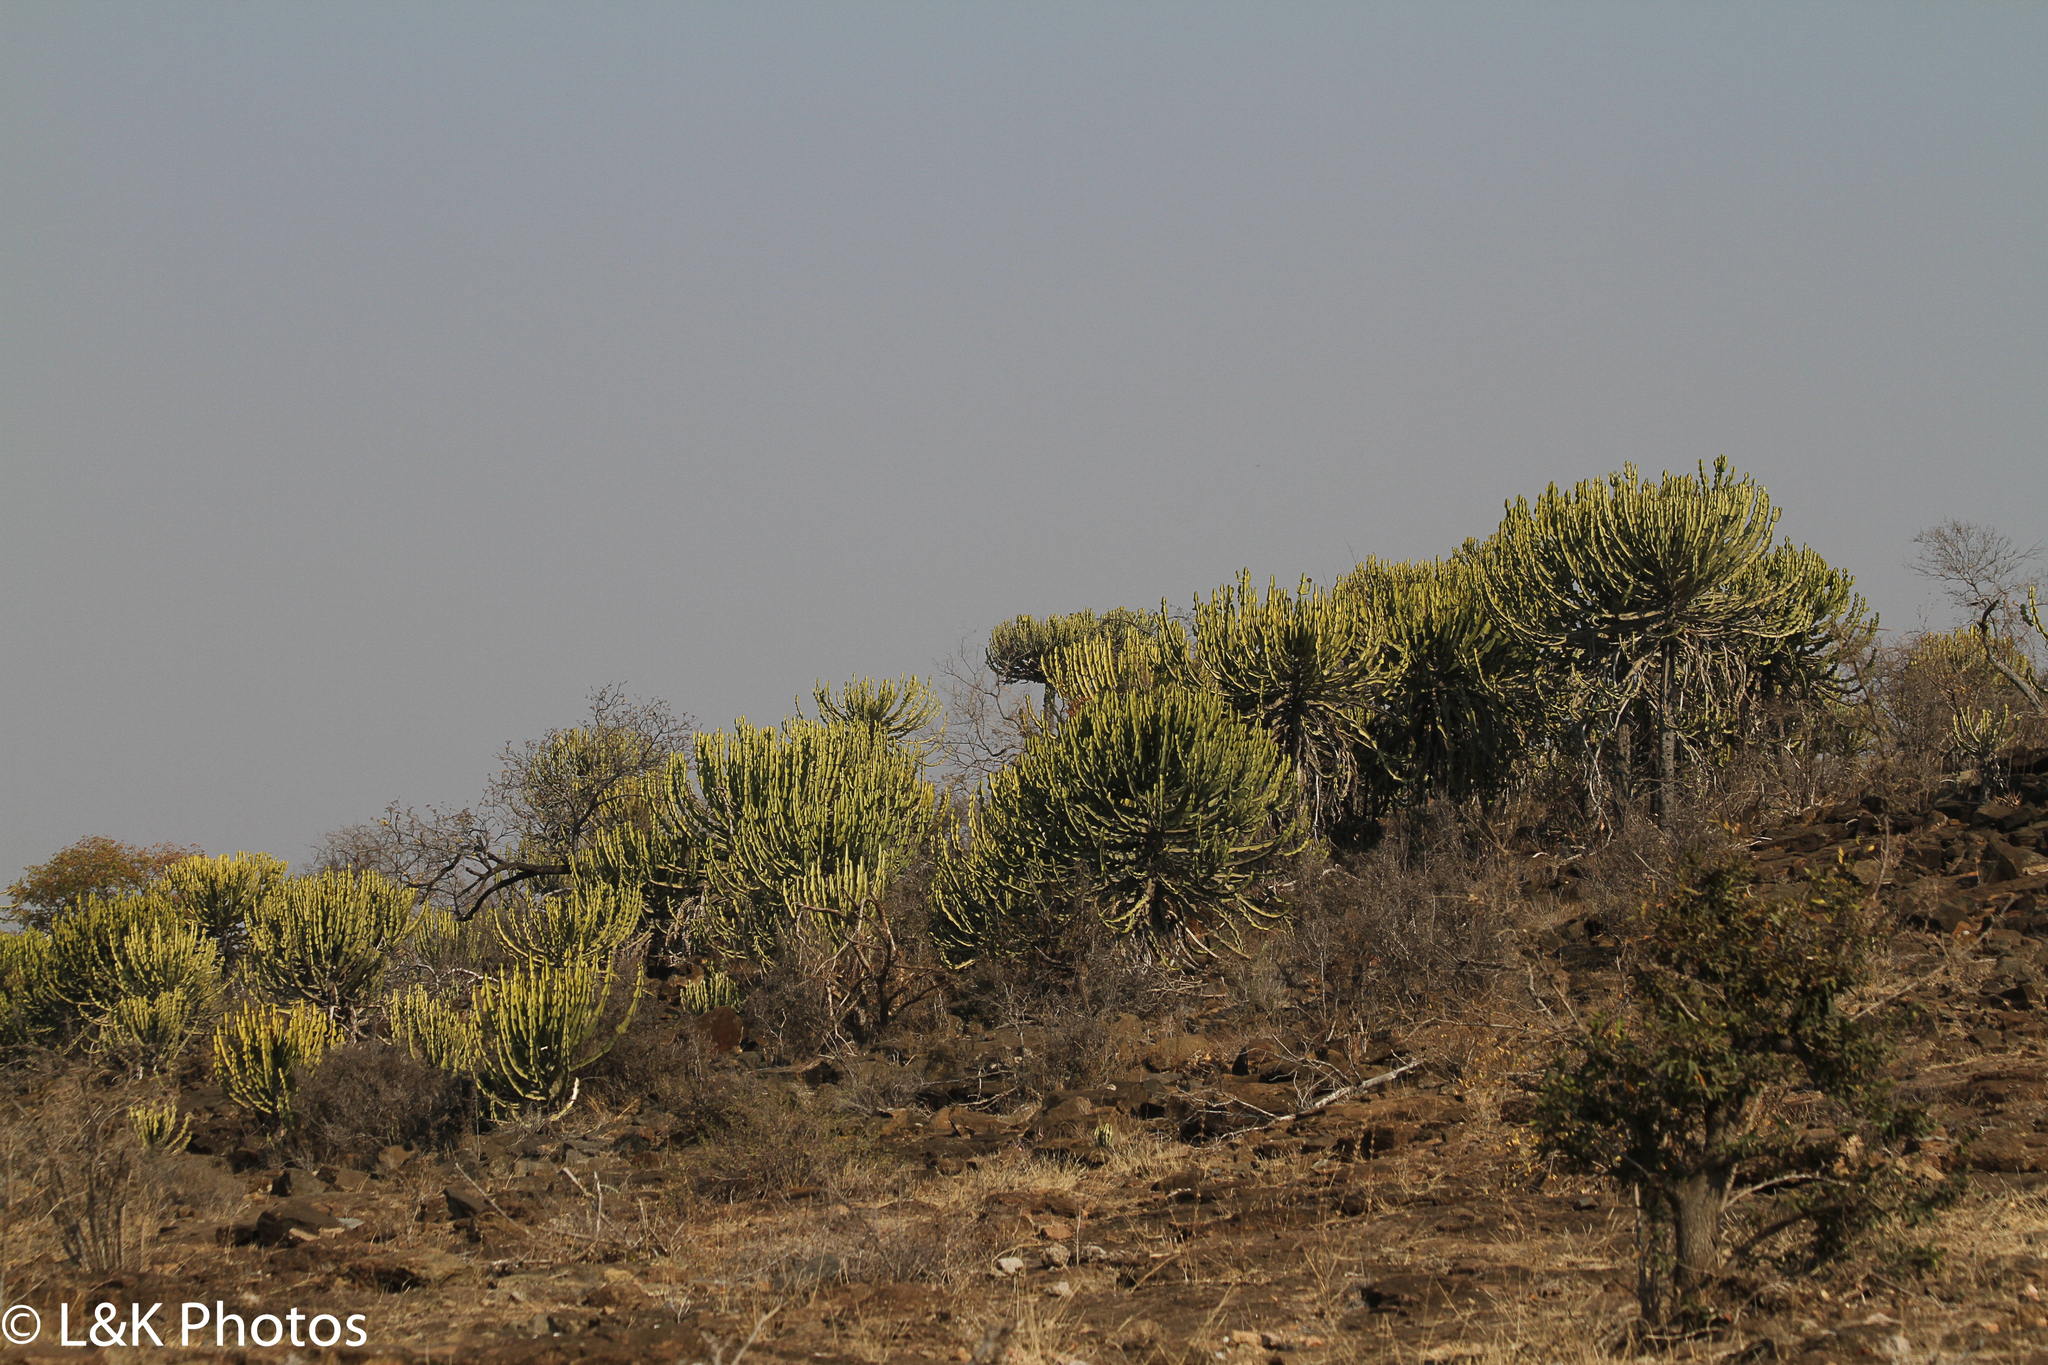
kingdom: Plantae
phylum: Tracheophyta
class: Magnoliopsida
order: Malpighiales
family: Euphorbiaceae
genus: Euphorbia
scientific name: Euphorbia cooperi
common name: Candelabra tree
